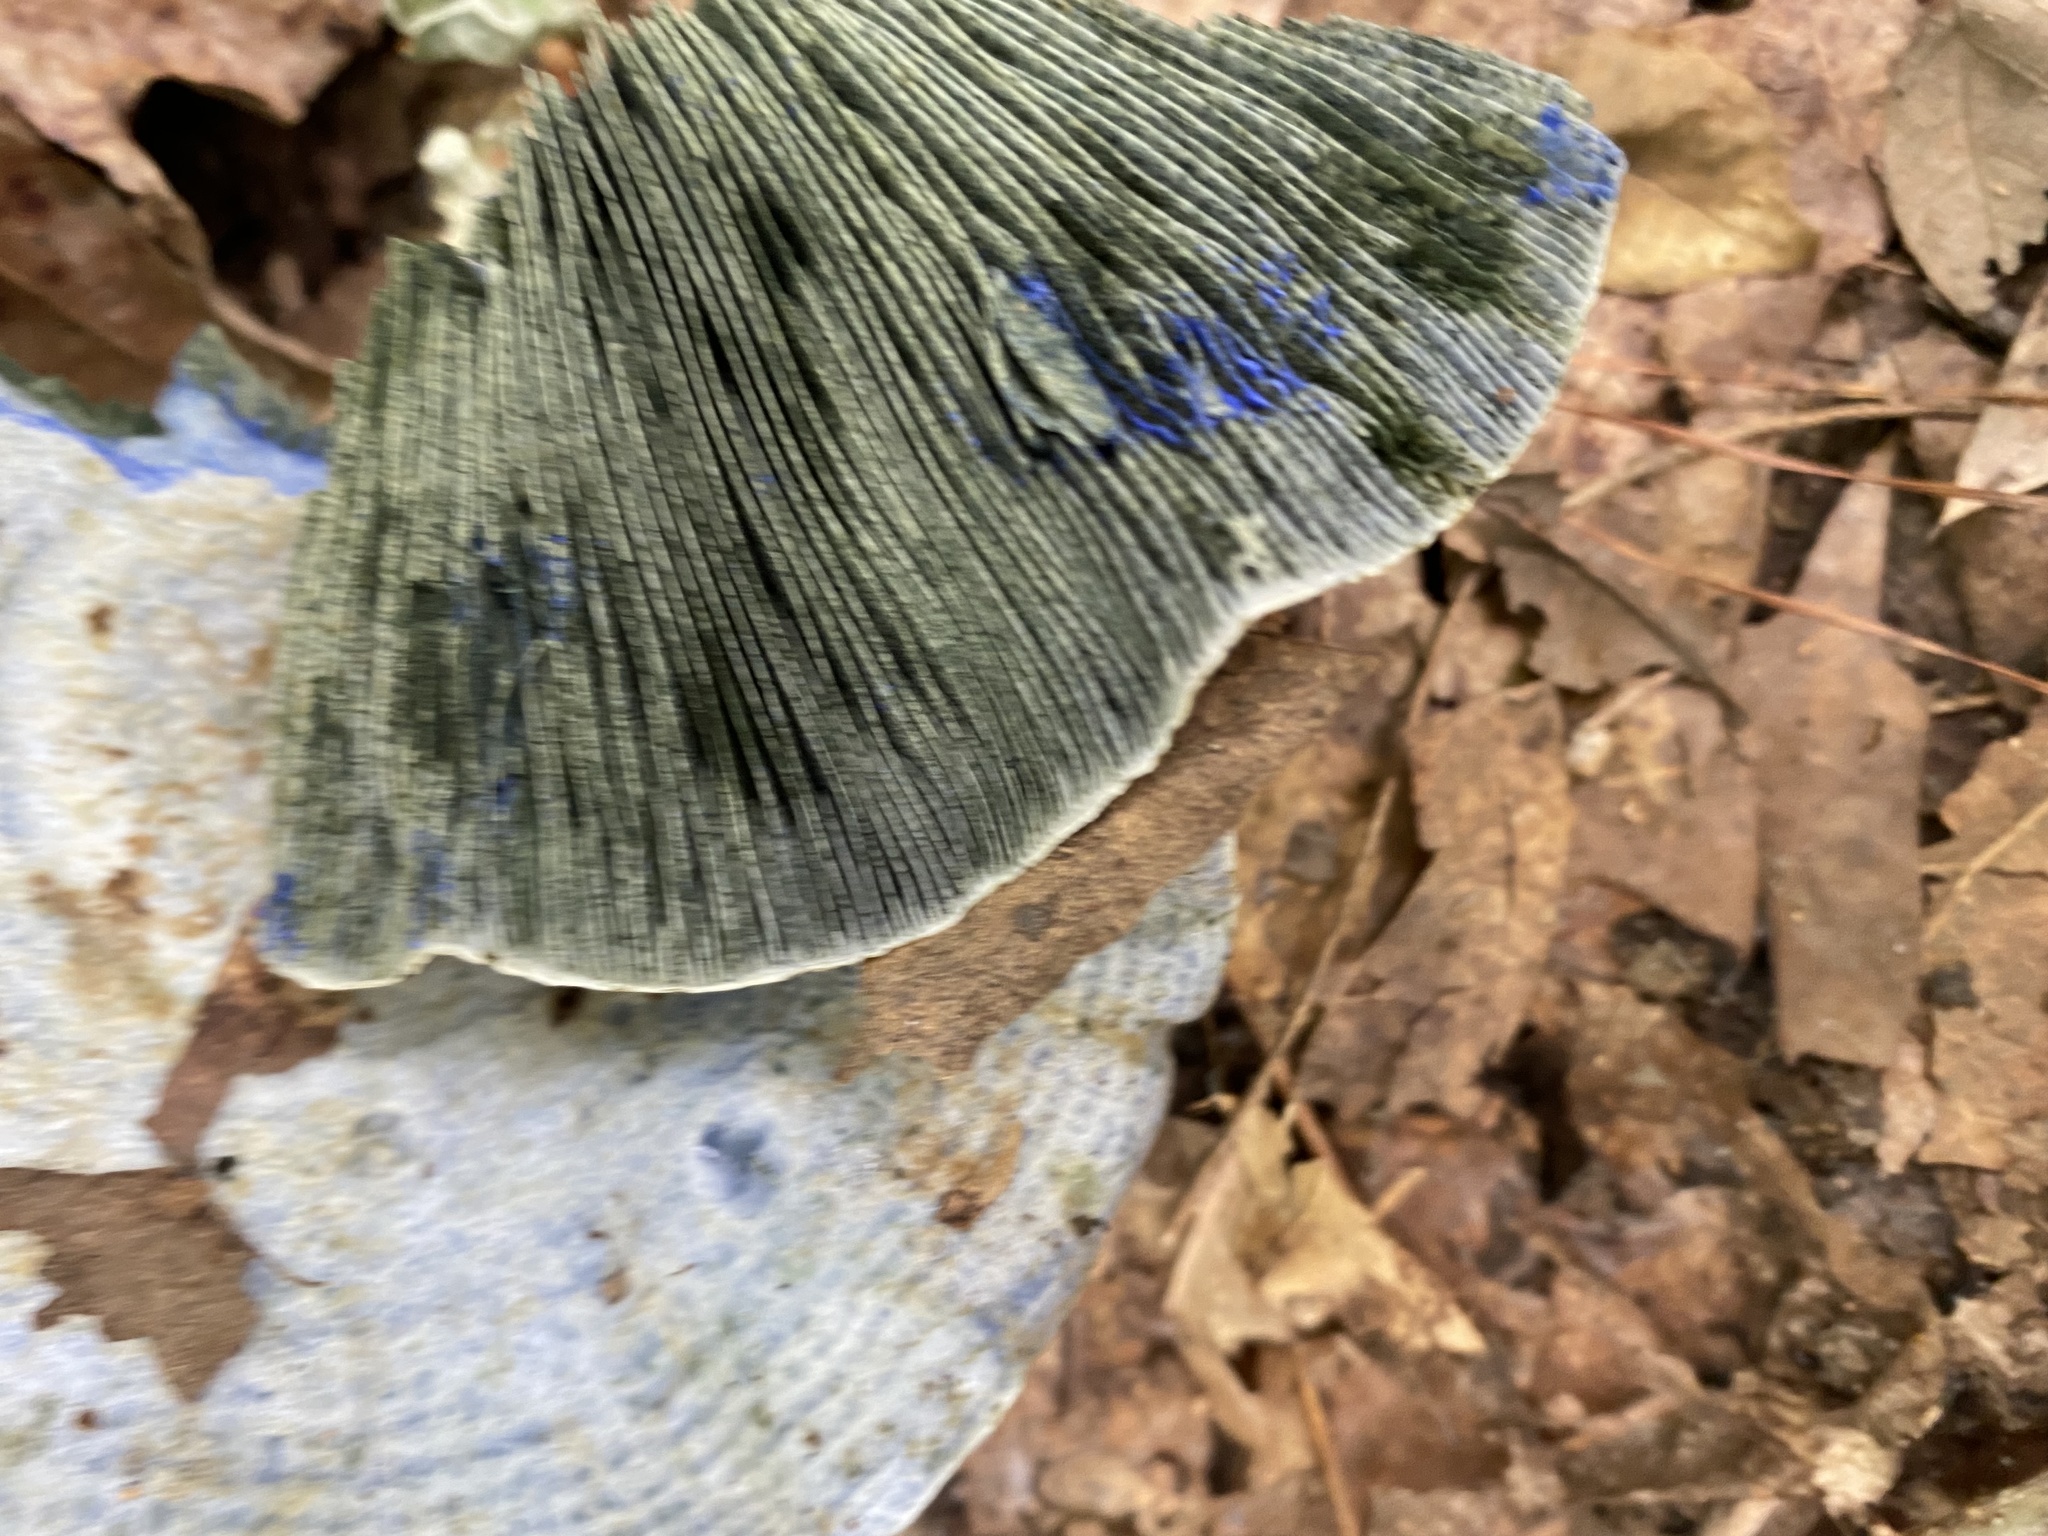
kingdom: Fungi
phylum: Basidiomycota
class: Agaricomycetes
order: Russulales
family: Russulaceae
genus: Lactarius
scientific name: Lactarius indigo
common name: Indigo milk cap
